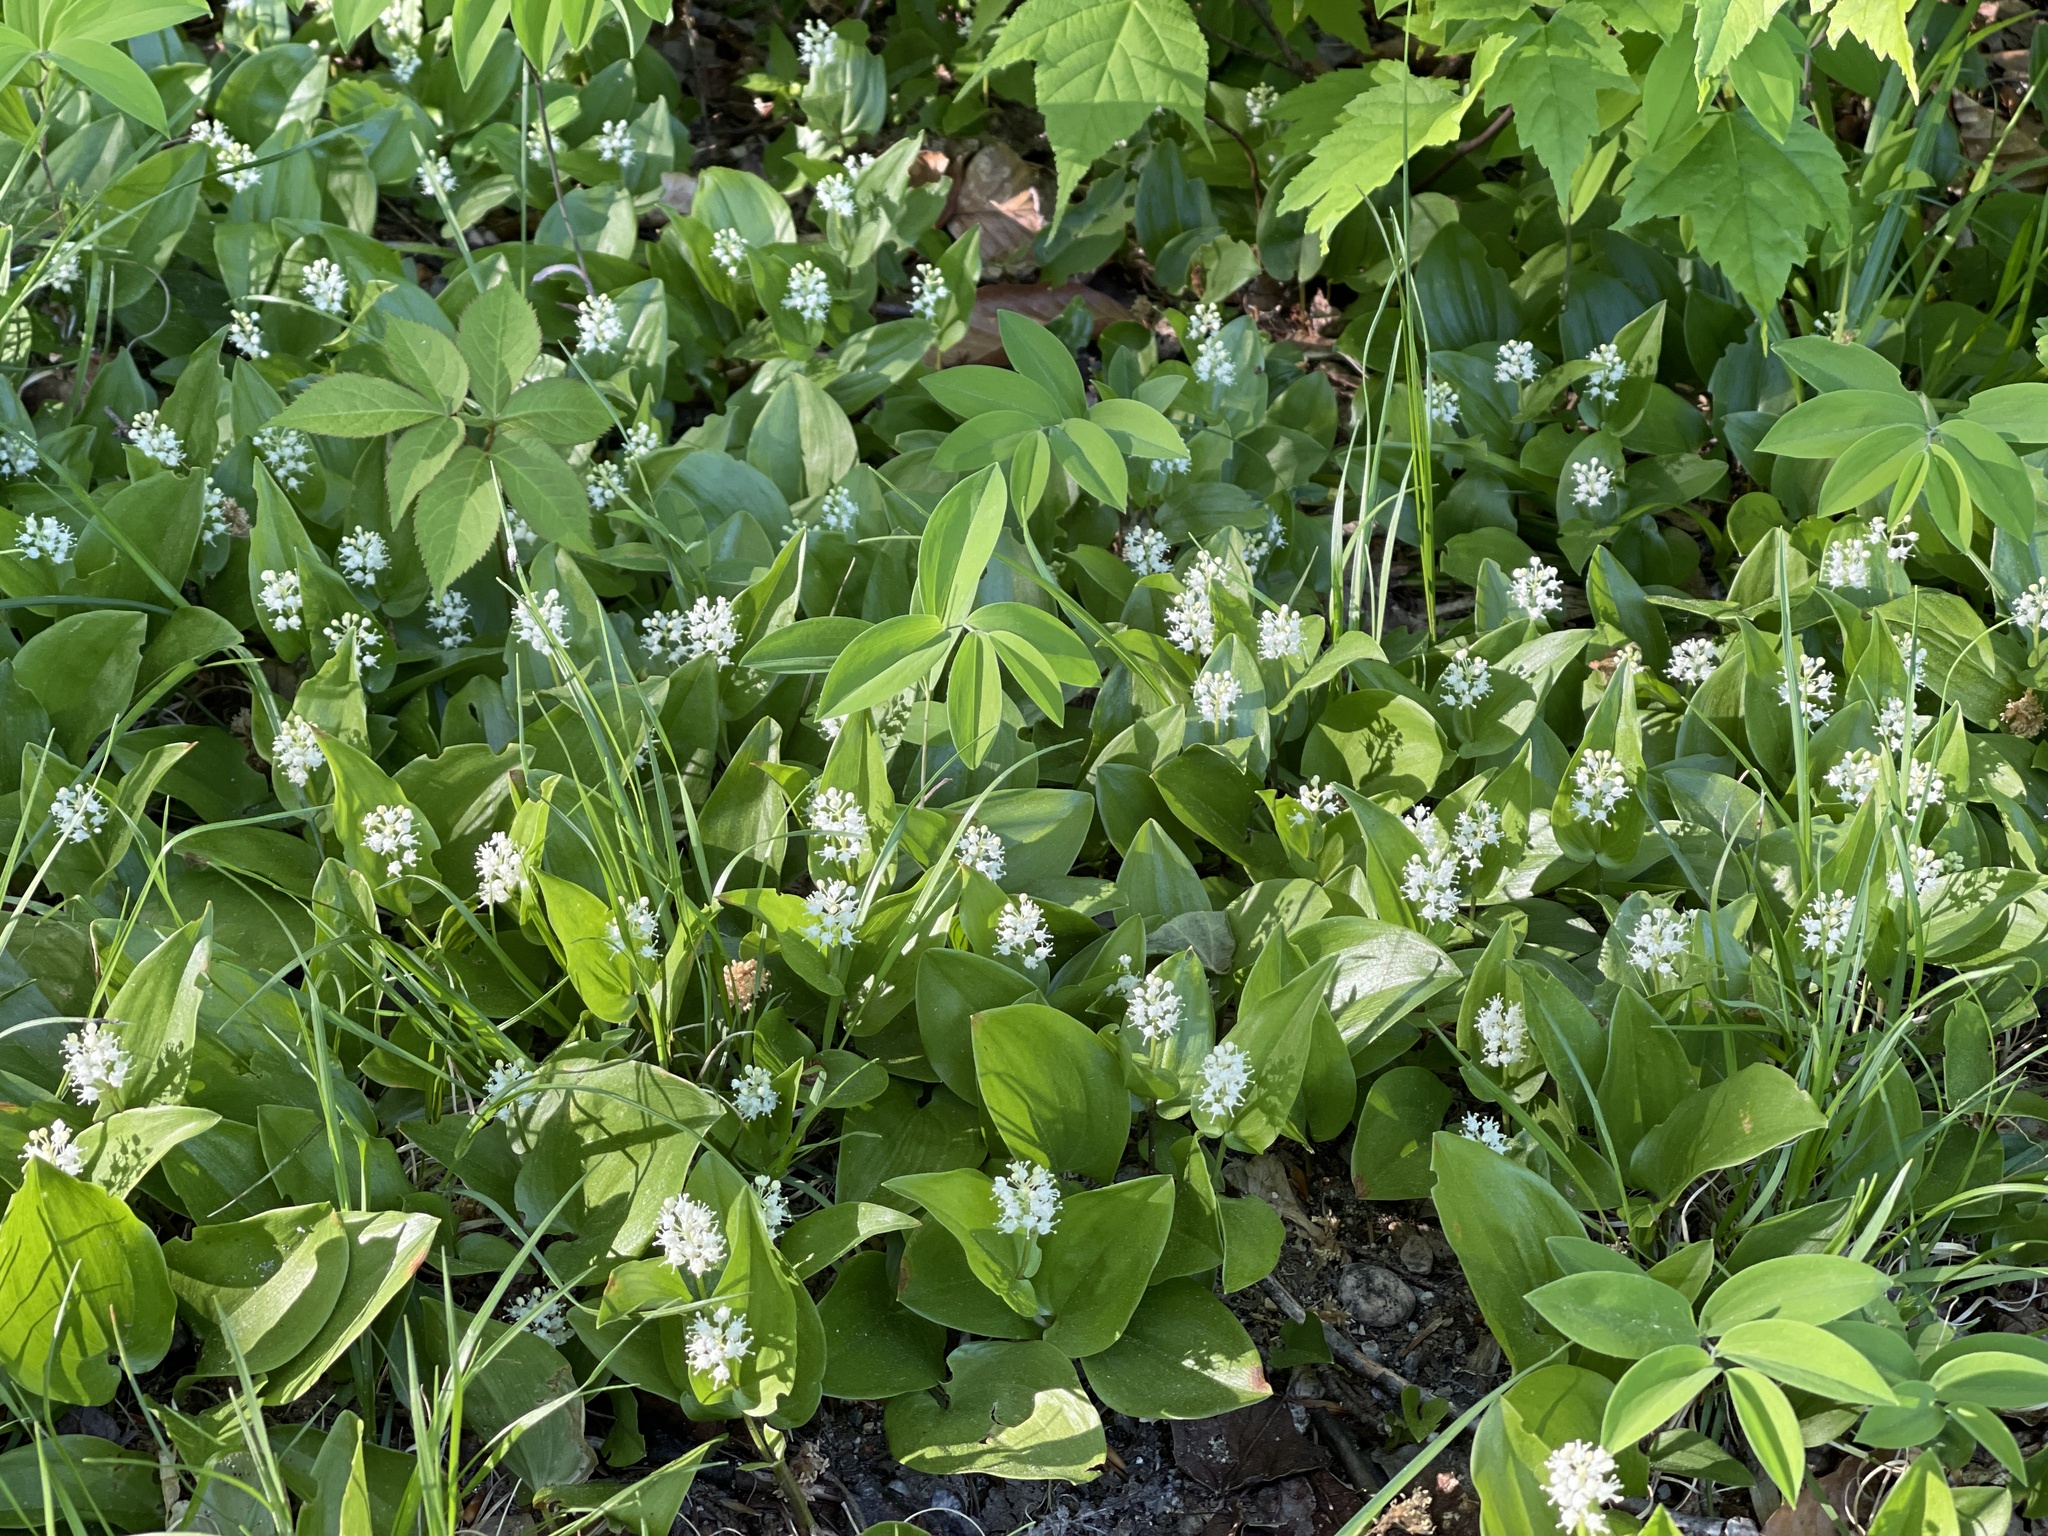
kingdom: Plantae
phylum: Tracheophyta
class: Liliopsida
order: Asparagales
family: Asparagaceae
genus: Maianthemum
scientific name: Maianthemum canadense
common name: False lily-of-the-valley
